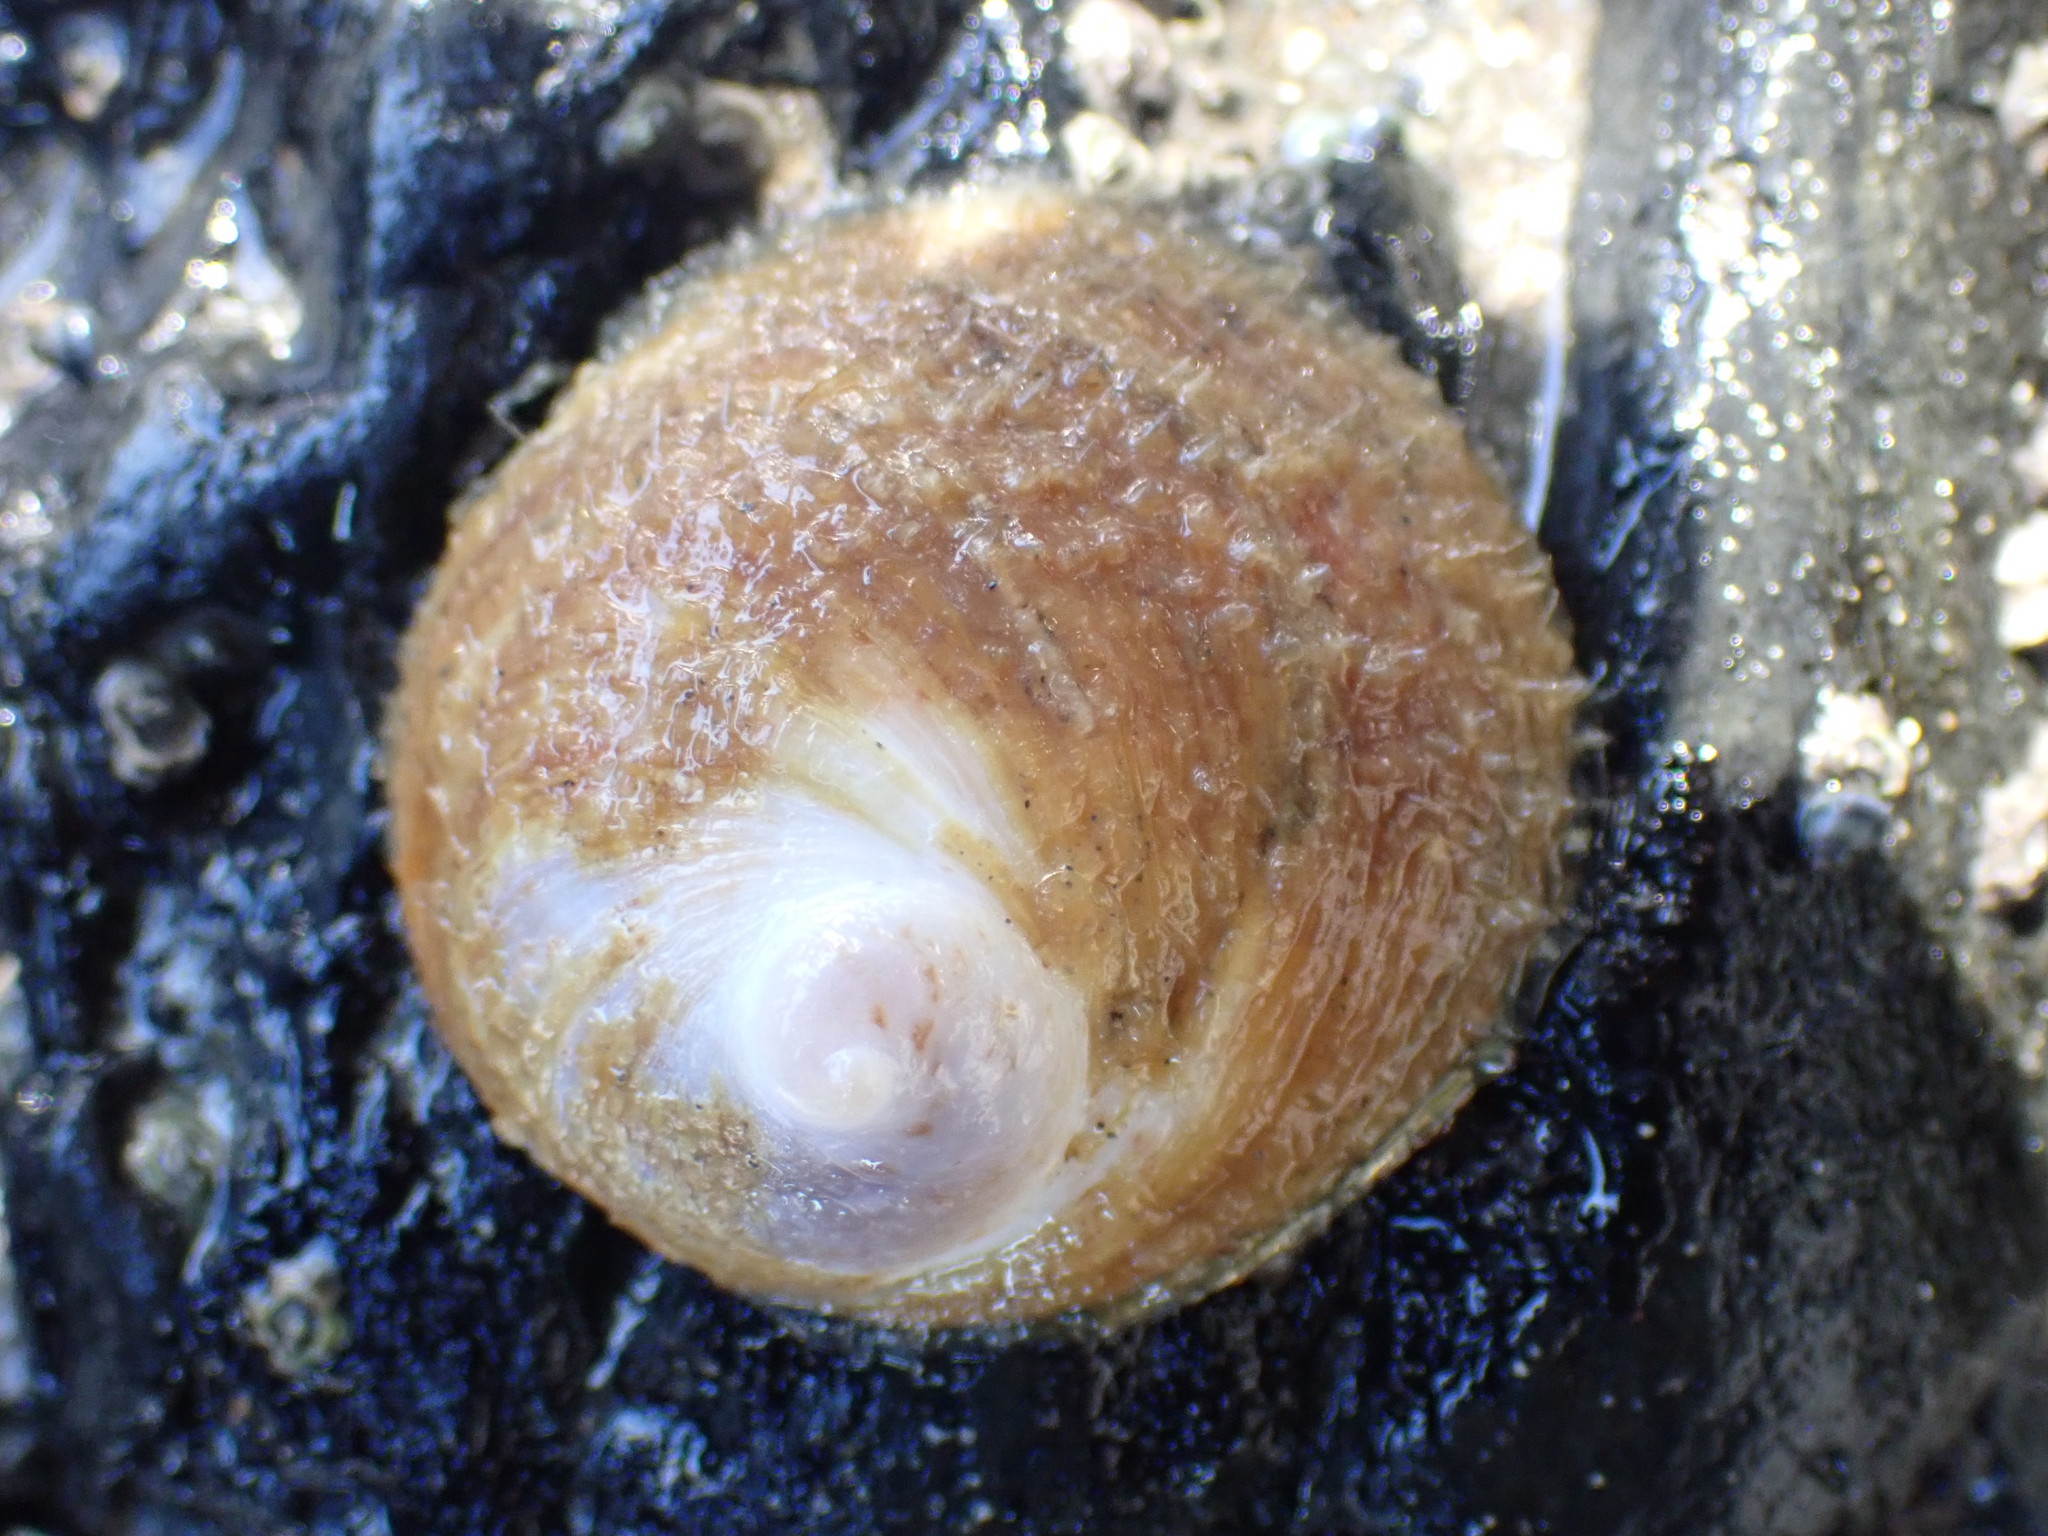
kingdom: Animalia
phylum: Mollusca
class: Gastropoda
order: Littorinimorpha
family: Calyptraeidae
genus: Sigapatella
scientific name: Sigapatella novaezelandiae
